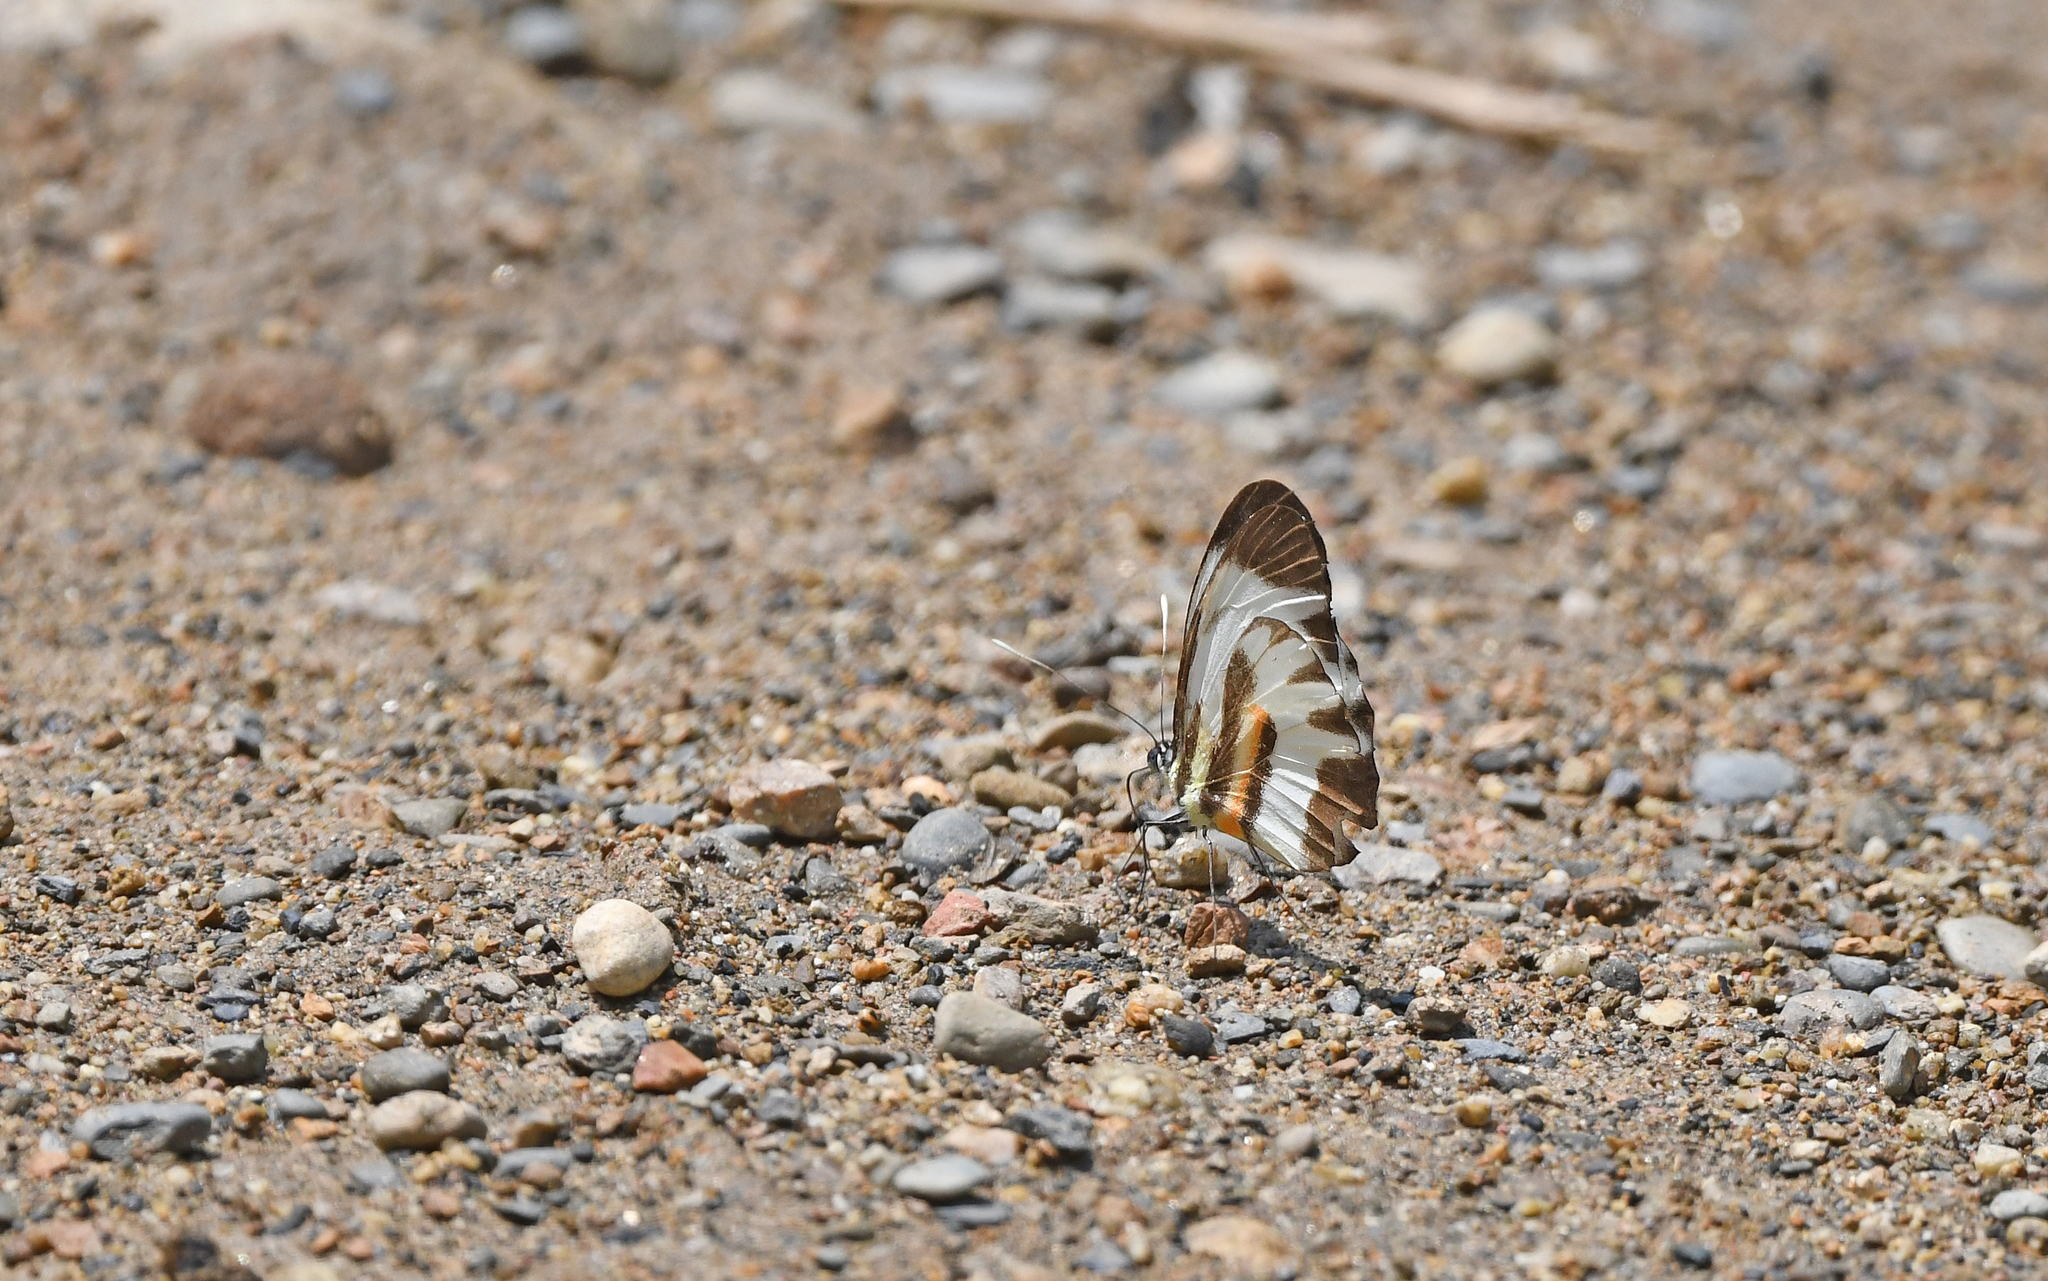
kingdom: Animalia
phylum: Arthropoda
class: Insecta
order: Lepidoptera
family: Pieridae
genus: Perrhybris
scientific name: Perrhybris pamela
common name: Chiapas white
